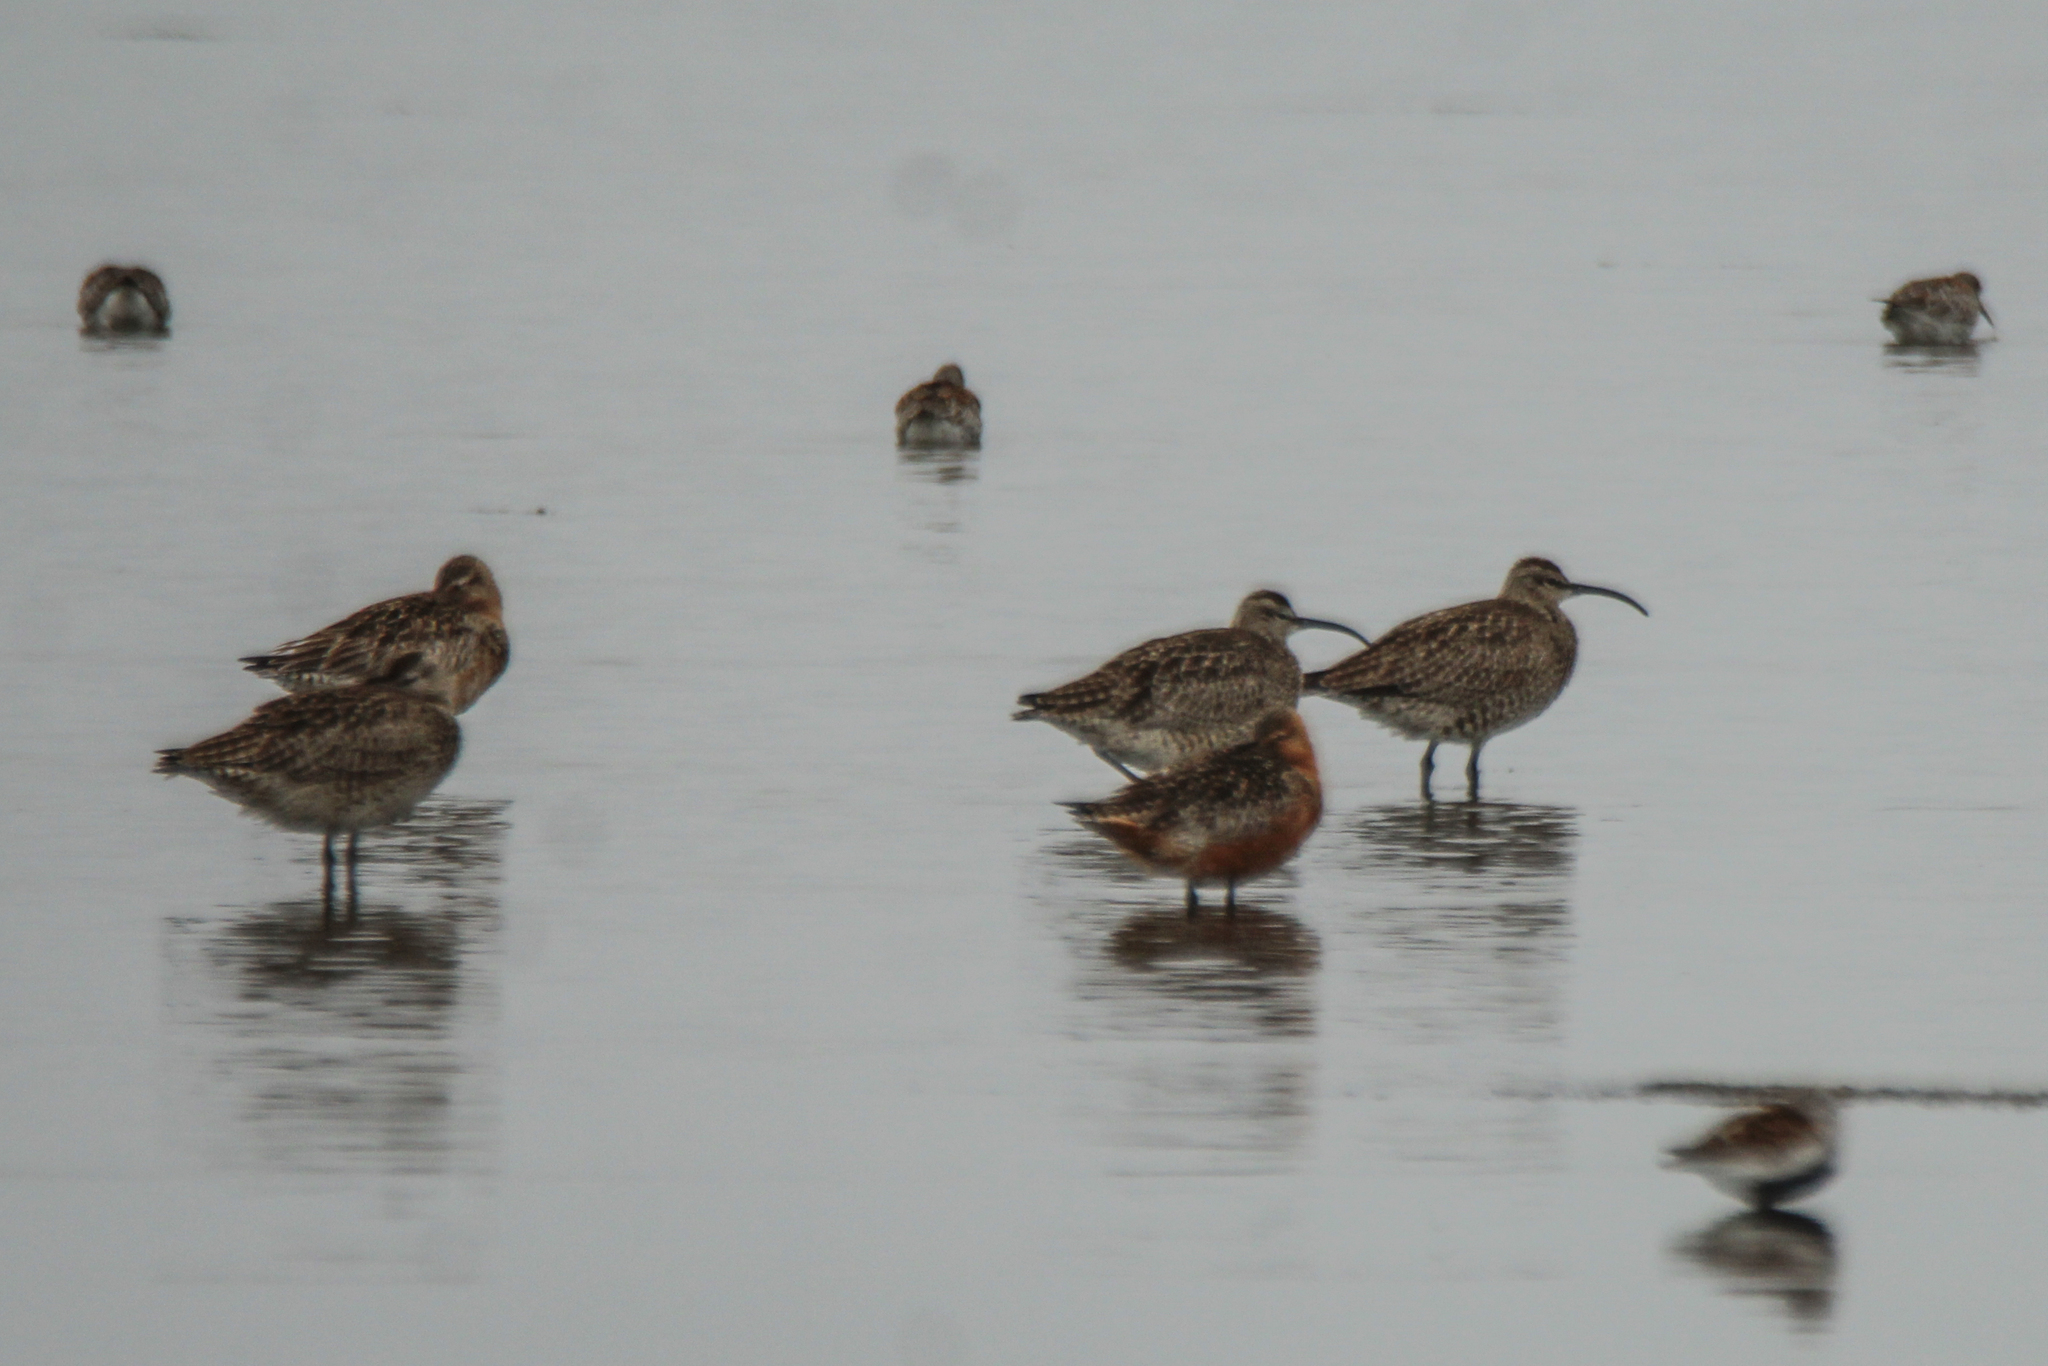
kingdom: Animalia
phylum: Chordata
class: Aves
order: Charadriiformes
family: Scolopacidae
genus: Numenius
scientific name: Numenius phaeopus
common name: Whimbrel
